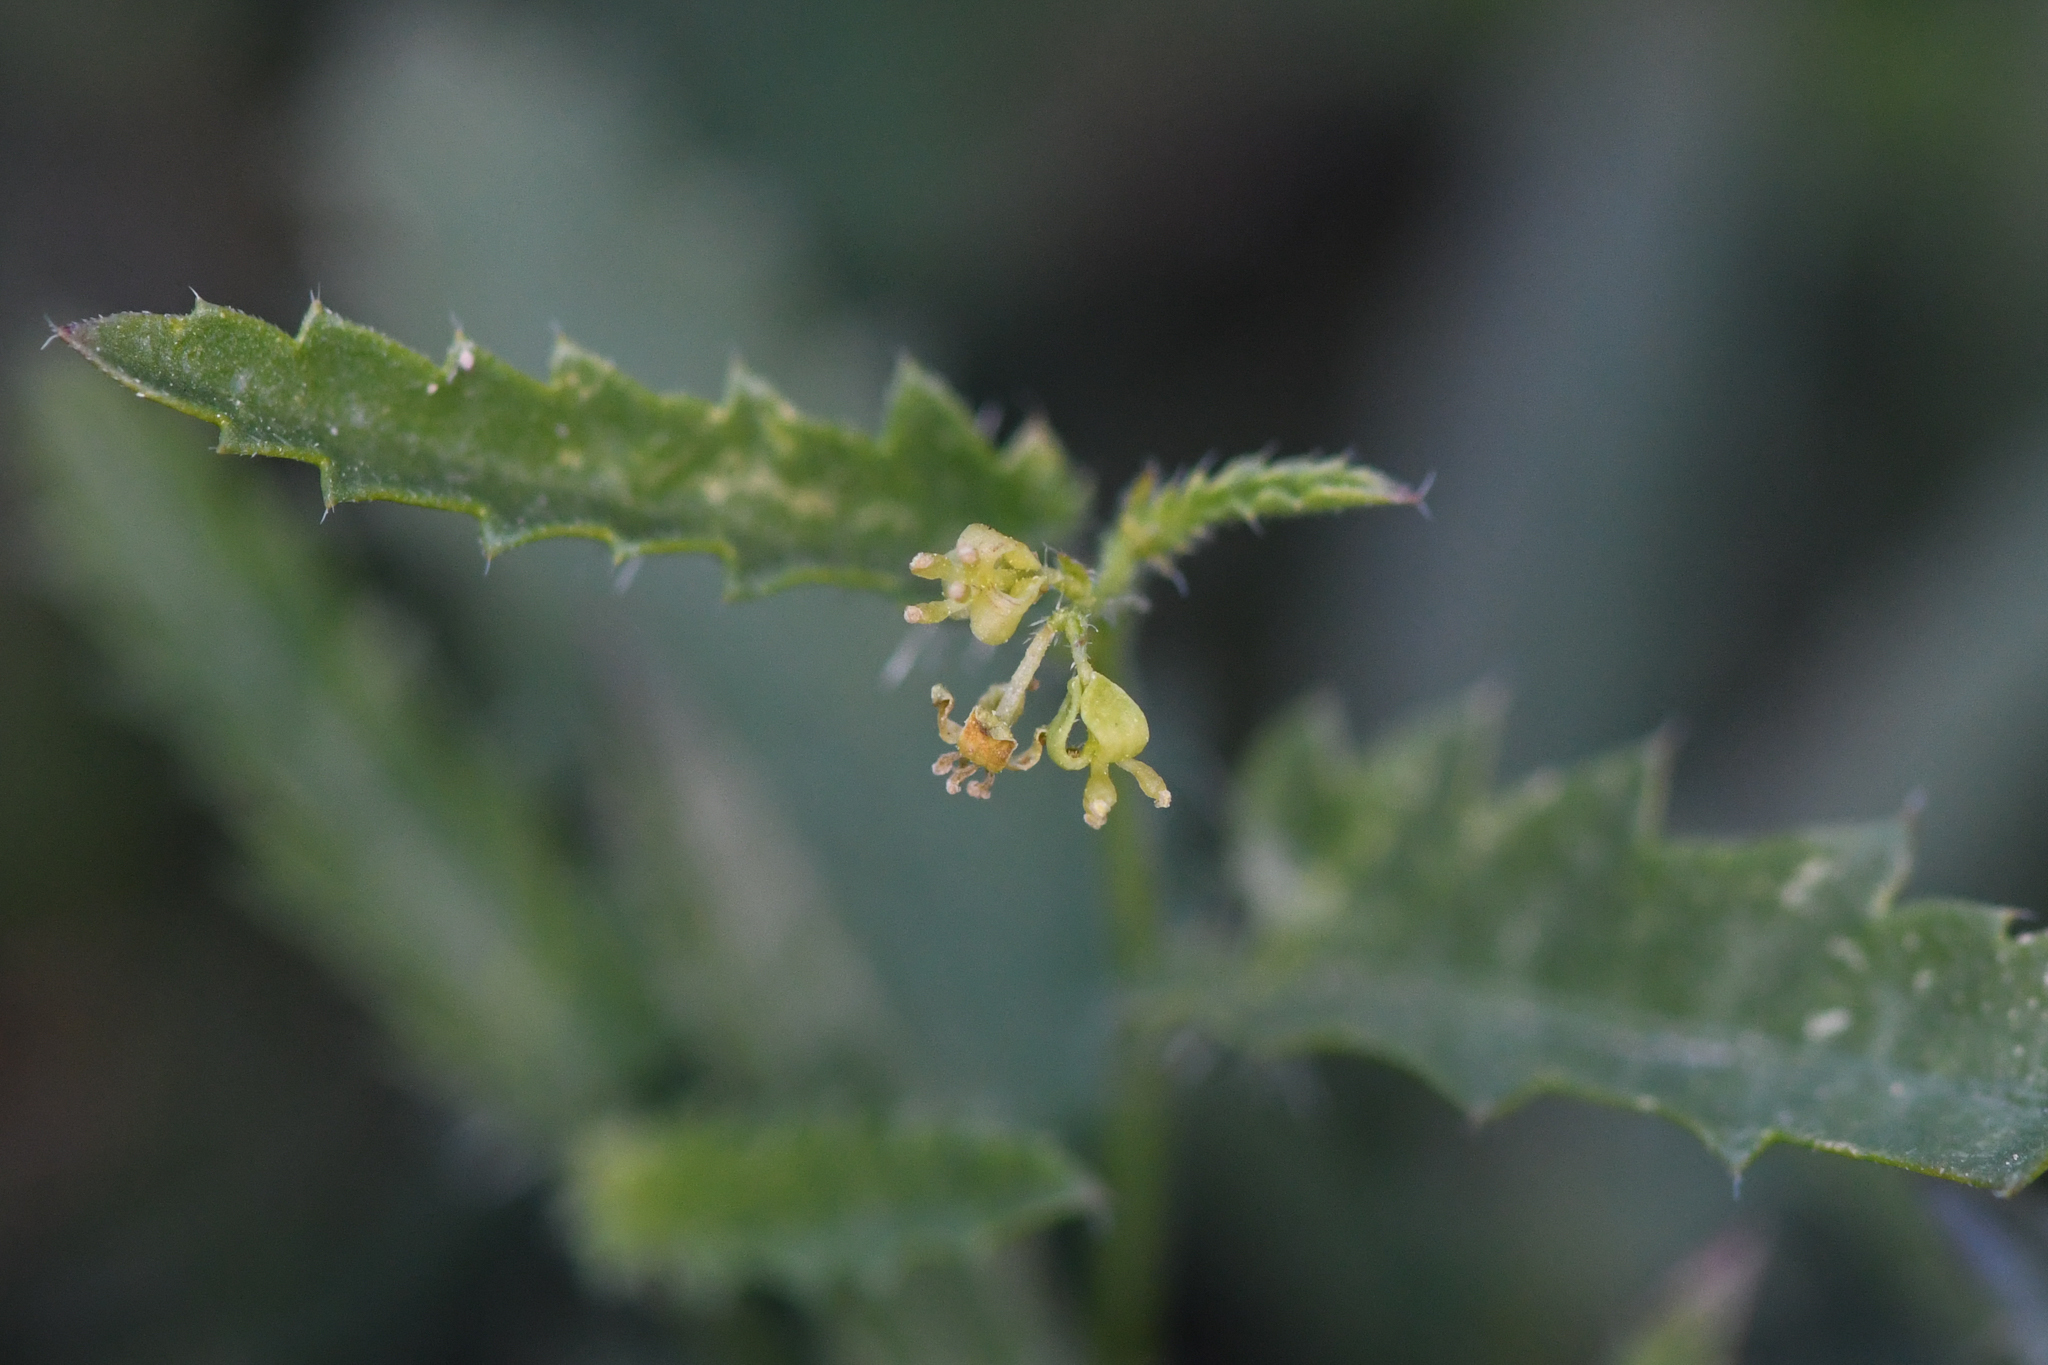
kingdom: Plantae
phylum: Tracheophyta
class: Magnoliopsida
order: Malpighiales
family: Euphorbiaceae
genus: Tragia
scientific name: Tragia ramosa
